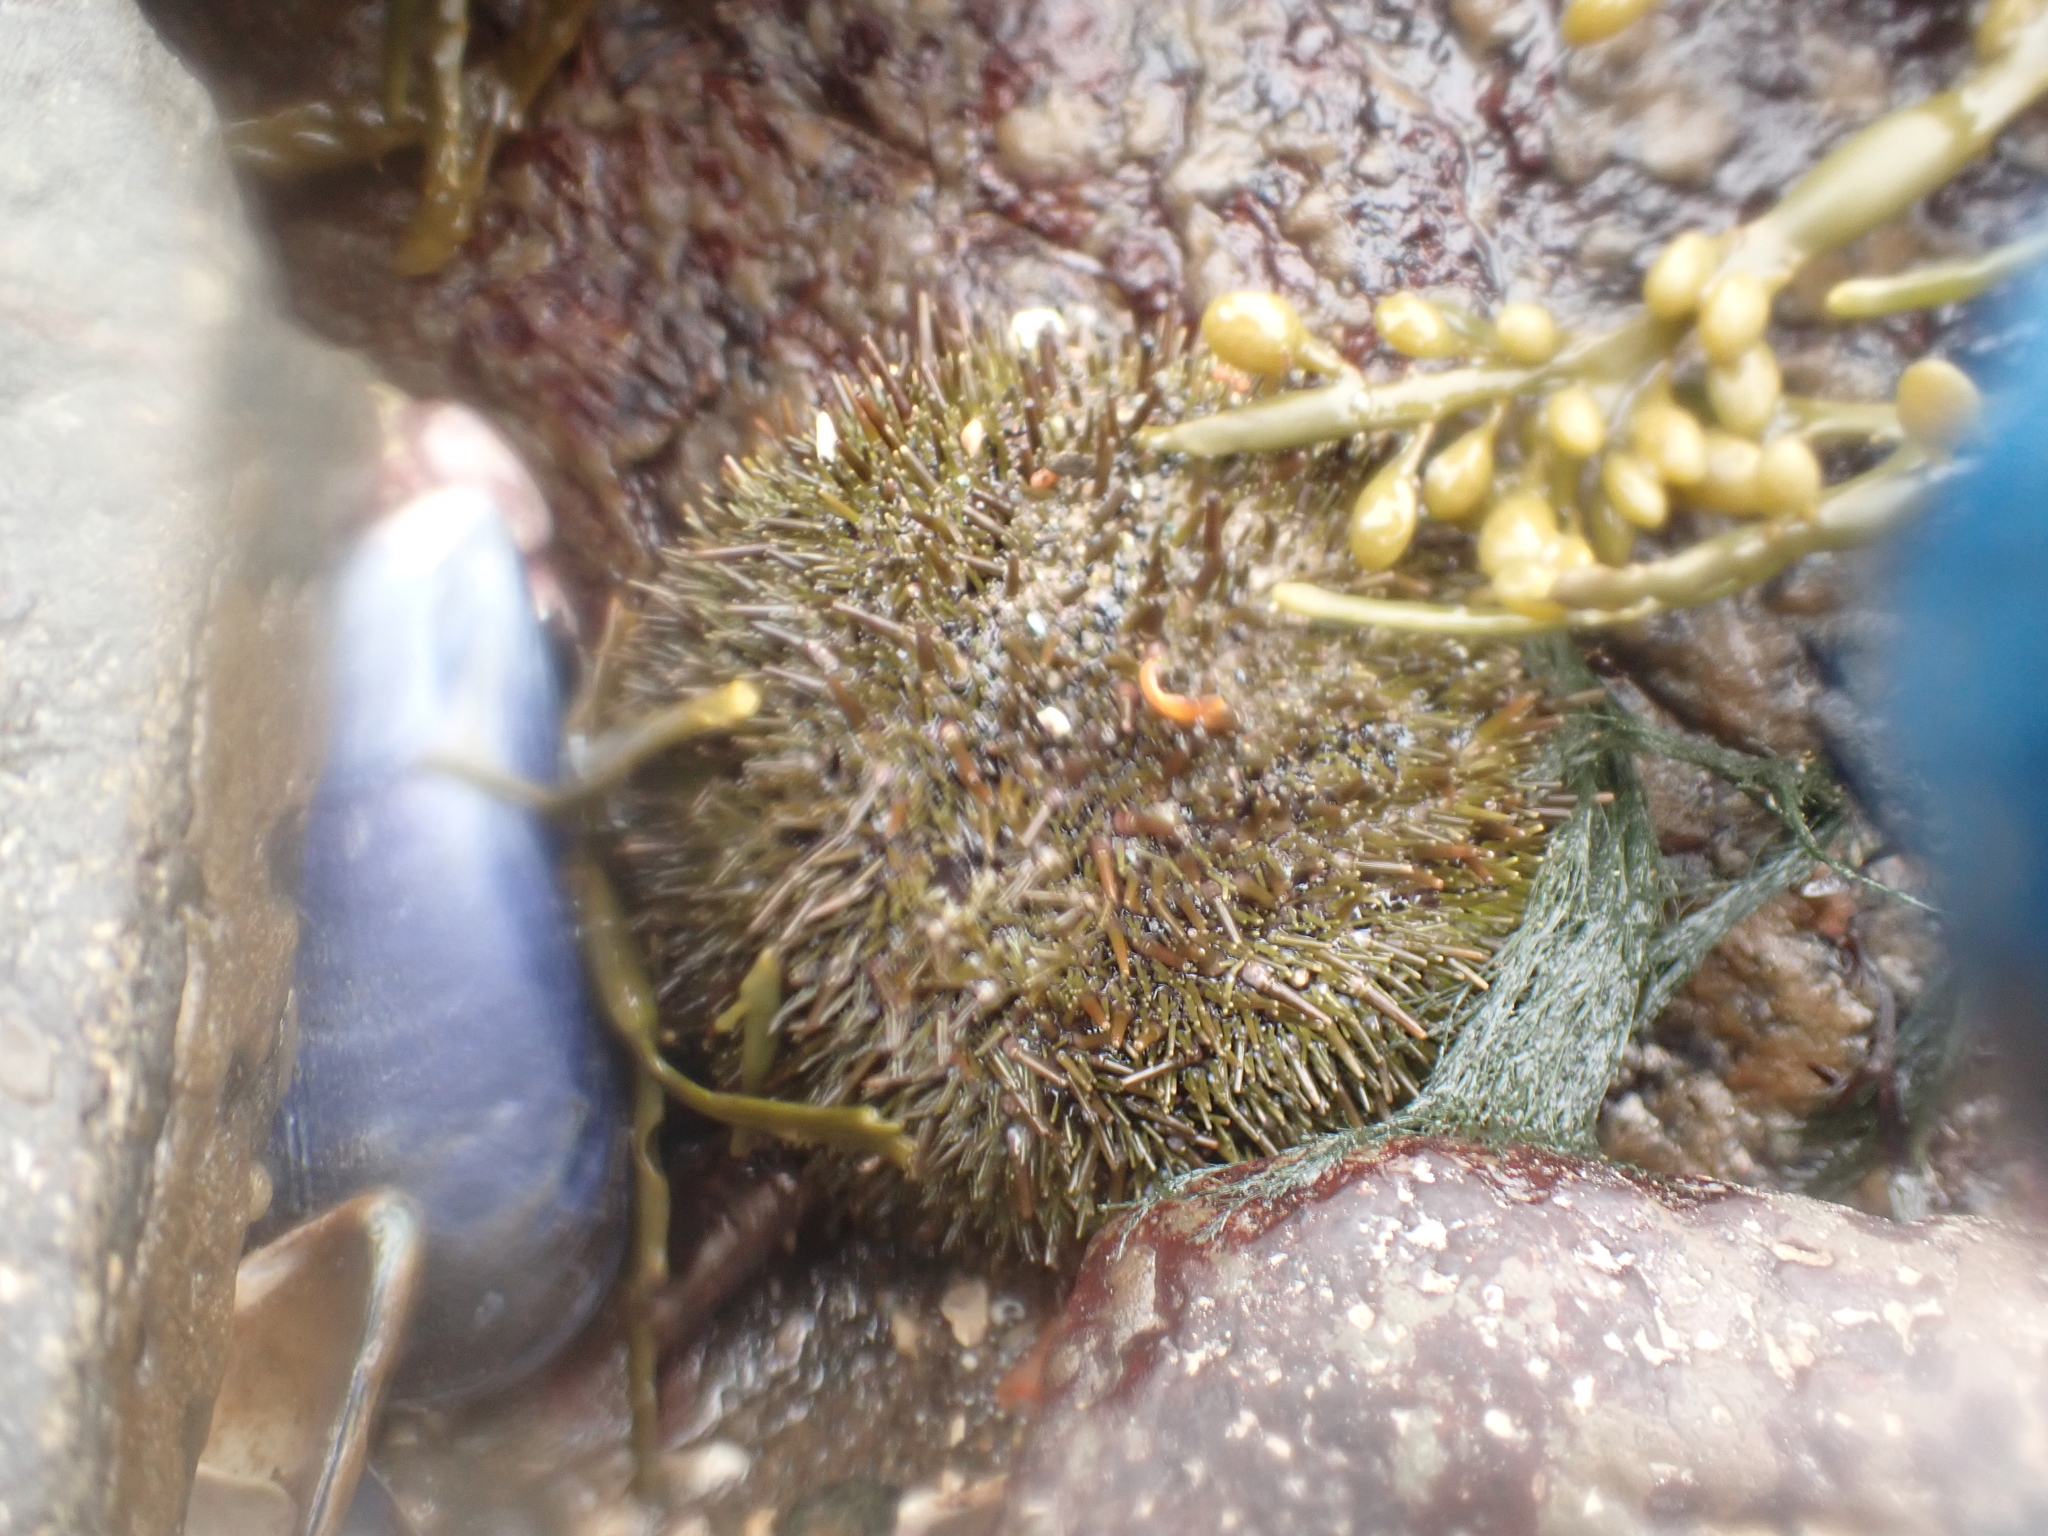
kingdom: Animalia
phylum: Echinodermata
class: Echinoidea
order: Camarodonta
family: Strongylocentrotidae
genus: Strongylocentrotus
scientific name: Strongylocentrotus droebachiensis
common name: Northern sea urchin
